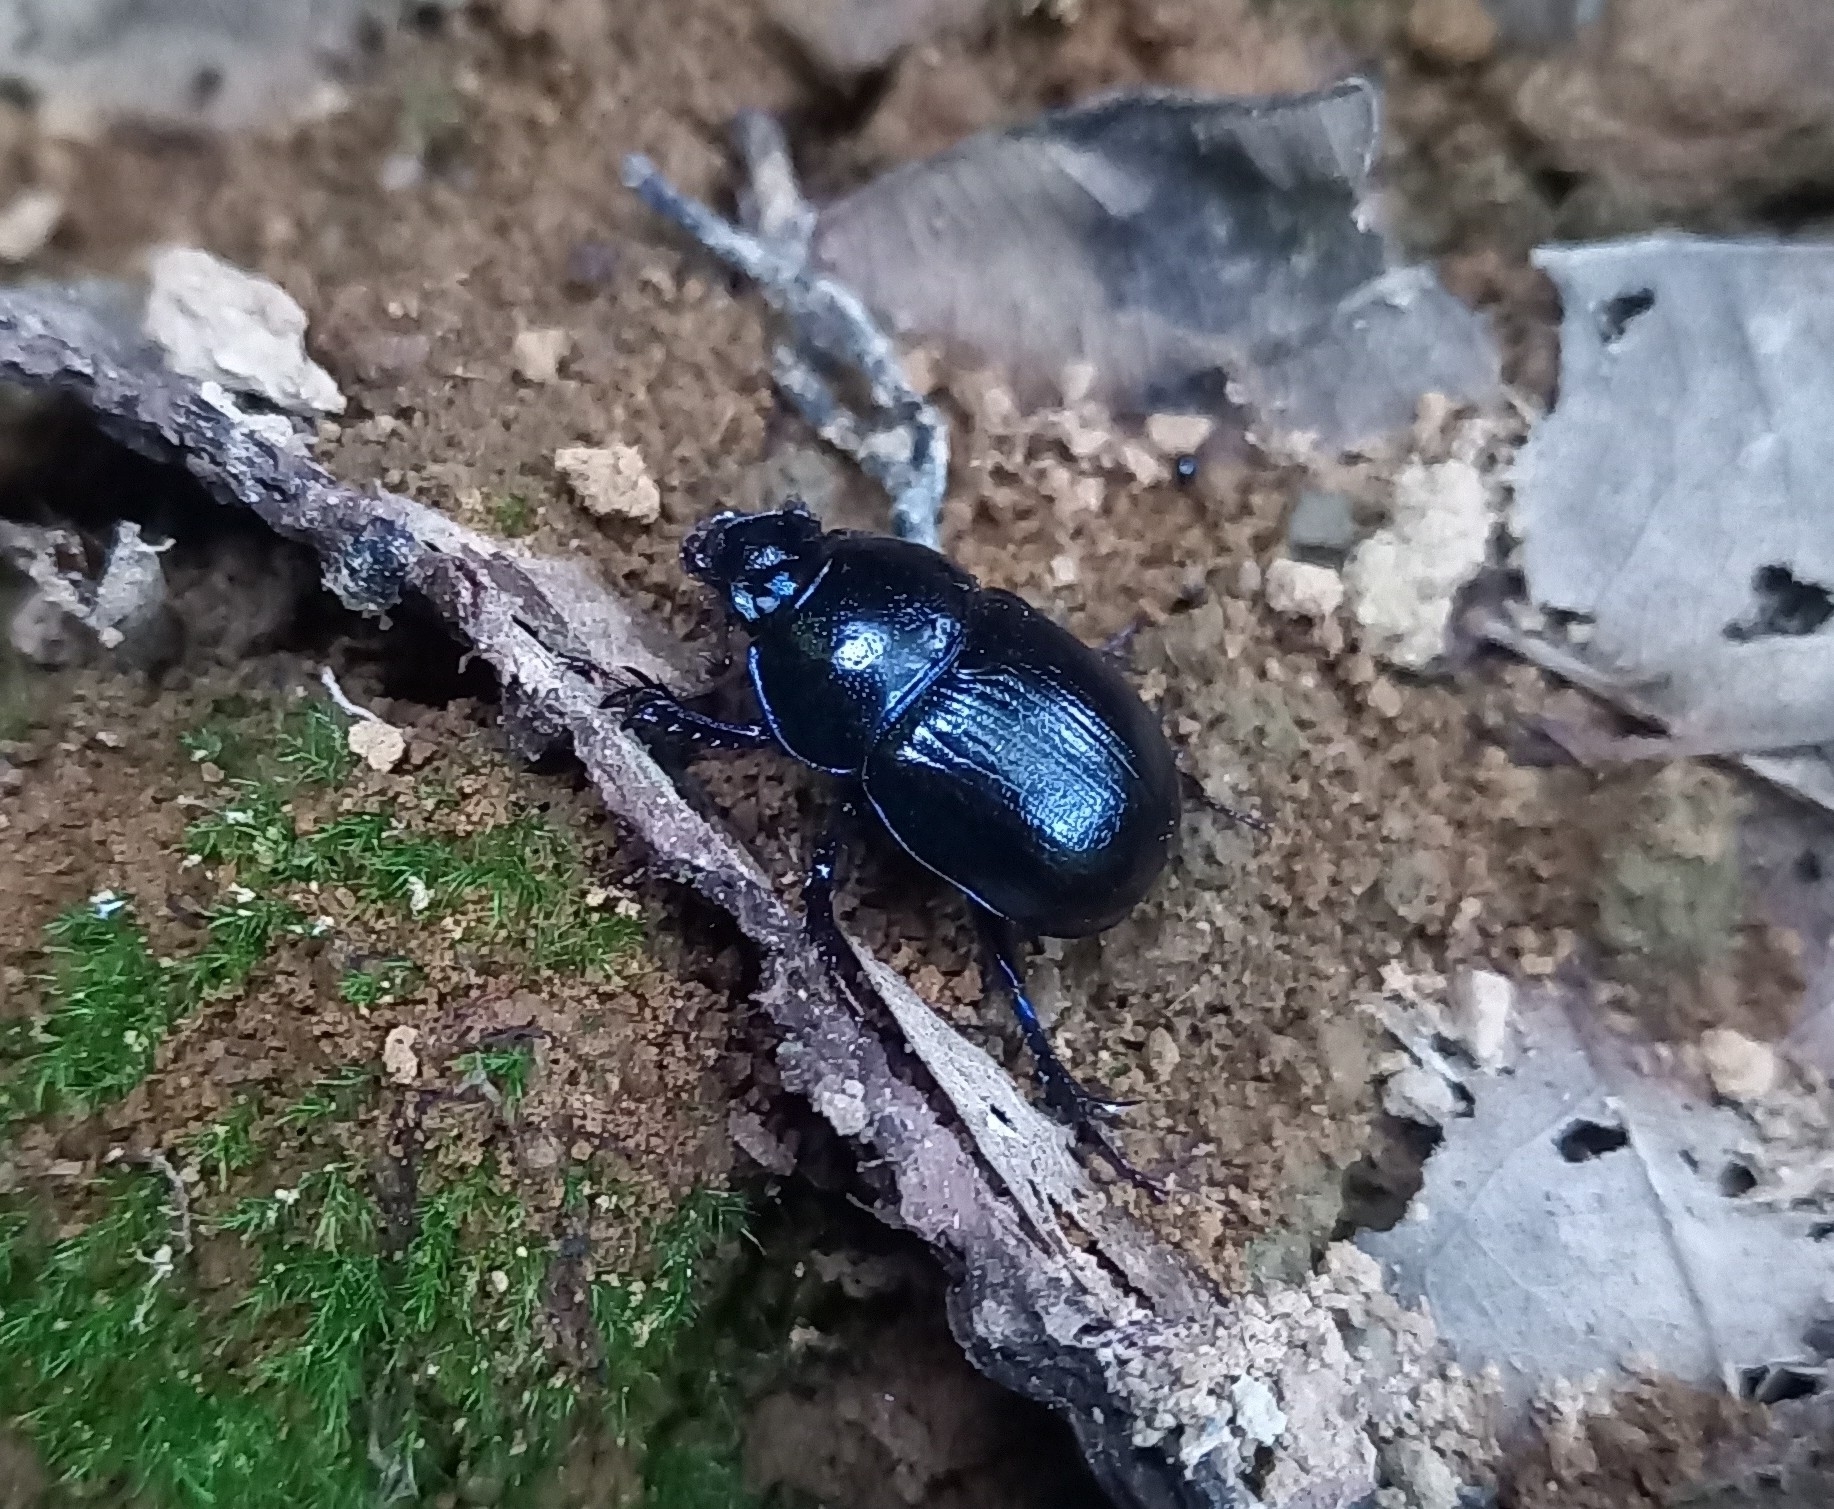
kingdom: Animalia
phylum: Arthropoda
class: Insecta
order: Coleoptera
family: Geotrupidae
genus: Anoplotrupes
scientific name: Anoplotrupes stercorosus
